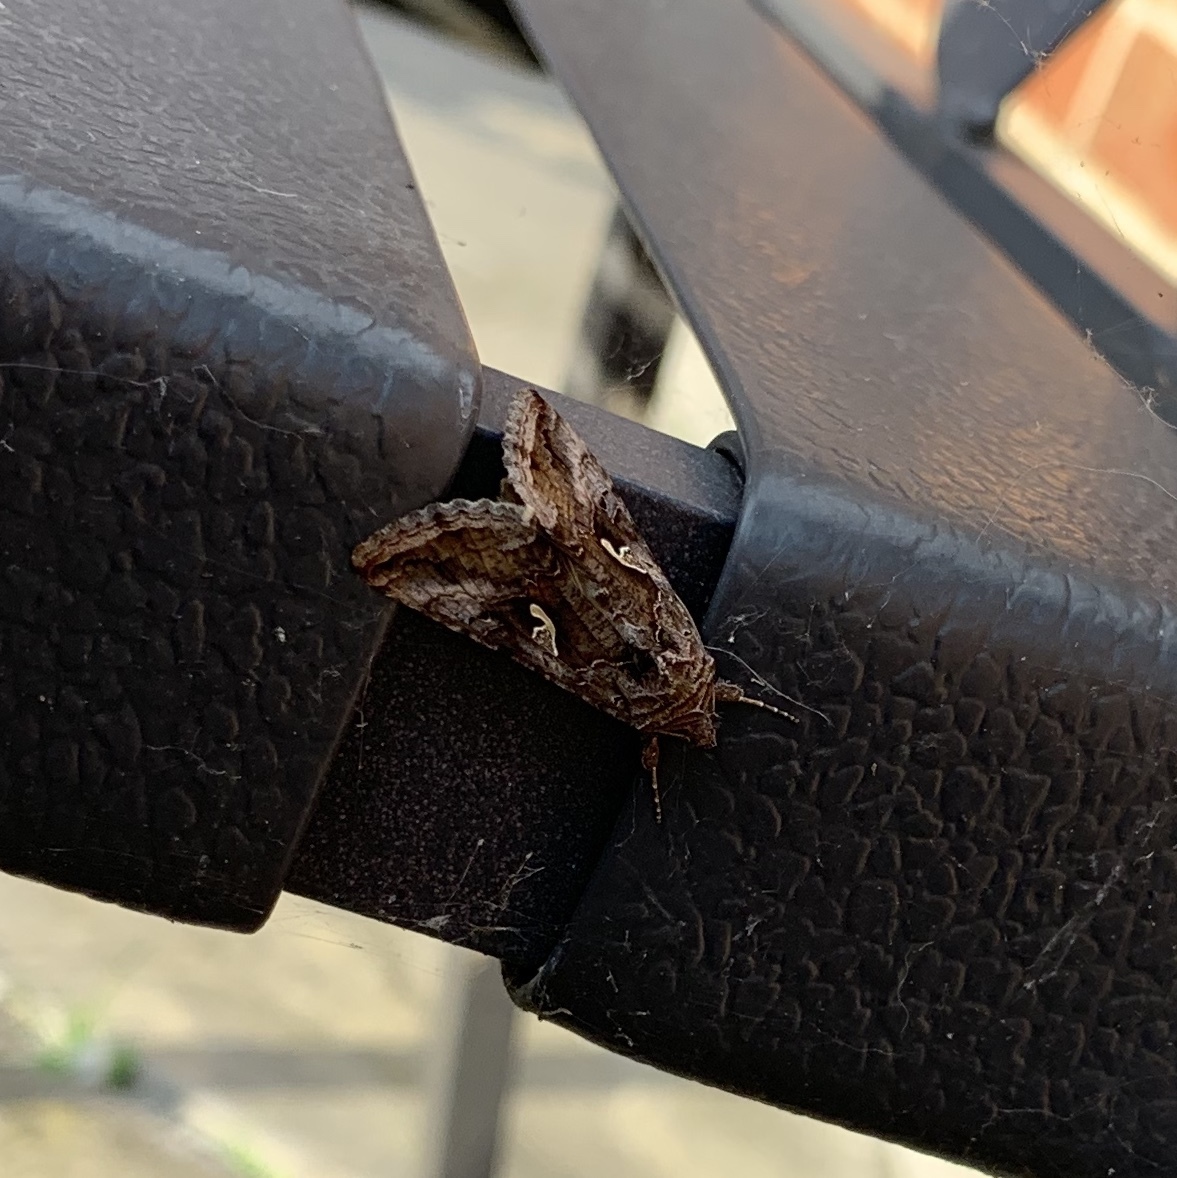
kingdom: Animalia
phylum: Arthropoda
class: Insecta
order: Lepidoptera
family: Noctuidae
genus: Autographa
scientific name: Autographa gamma
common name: Silver y
